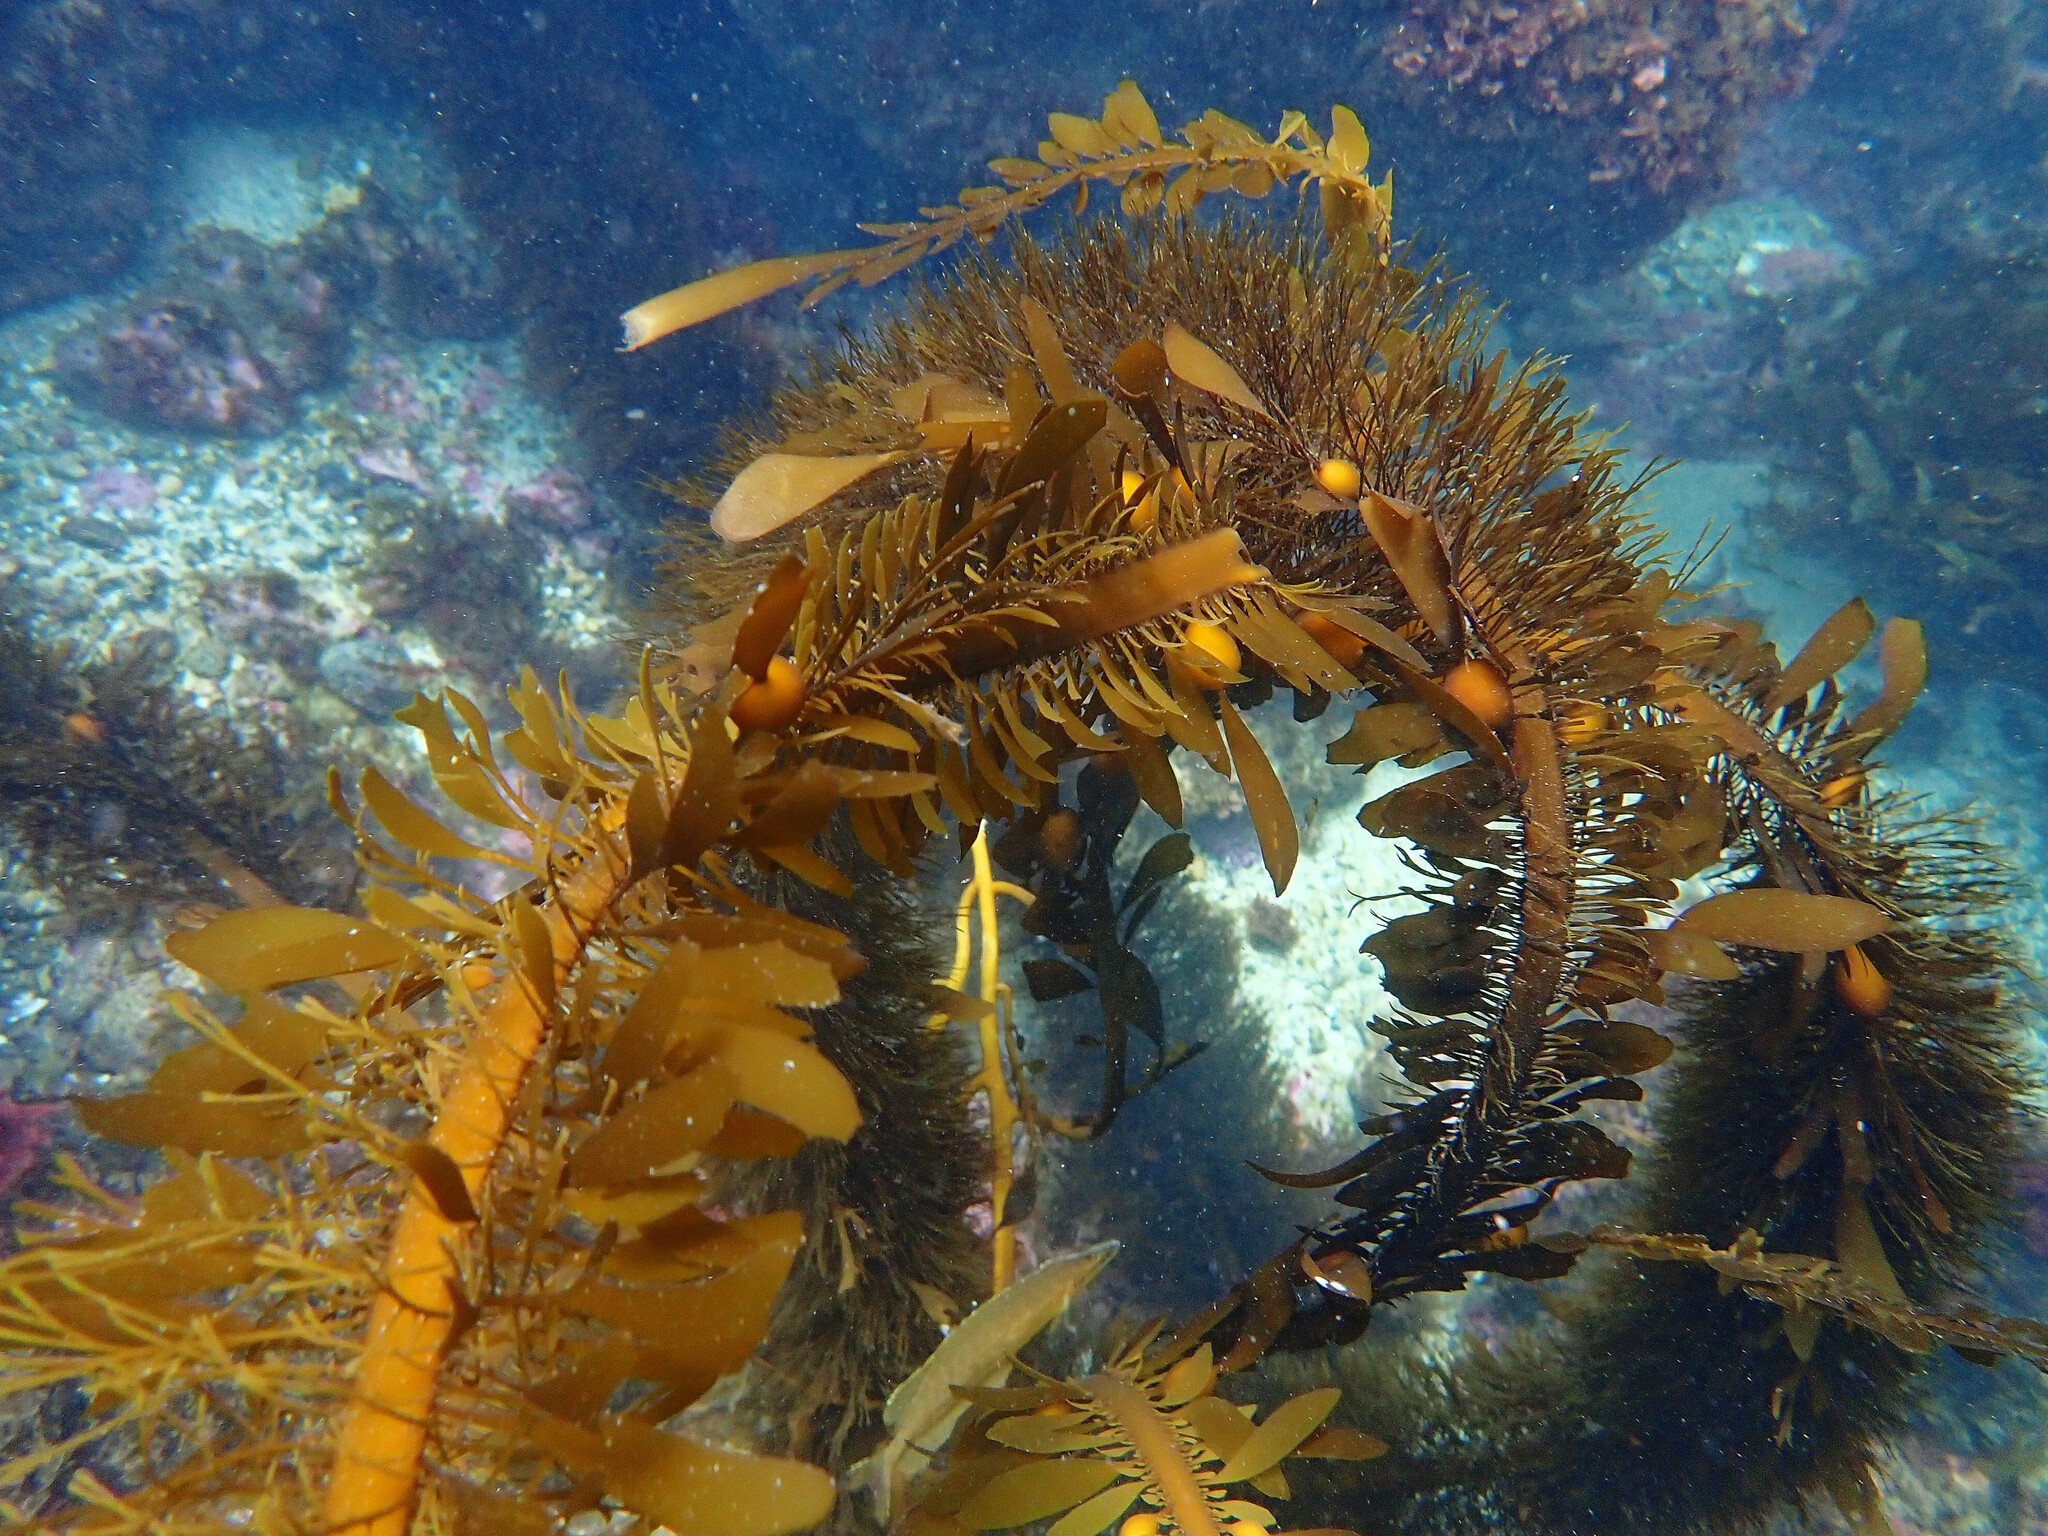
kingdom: Chromista
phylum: Ochrophyta
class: Phaeophyceae
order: Laminariales
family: Lessoniaceae
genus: Egregia
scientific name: Egregia menziesii
